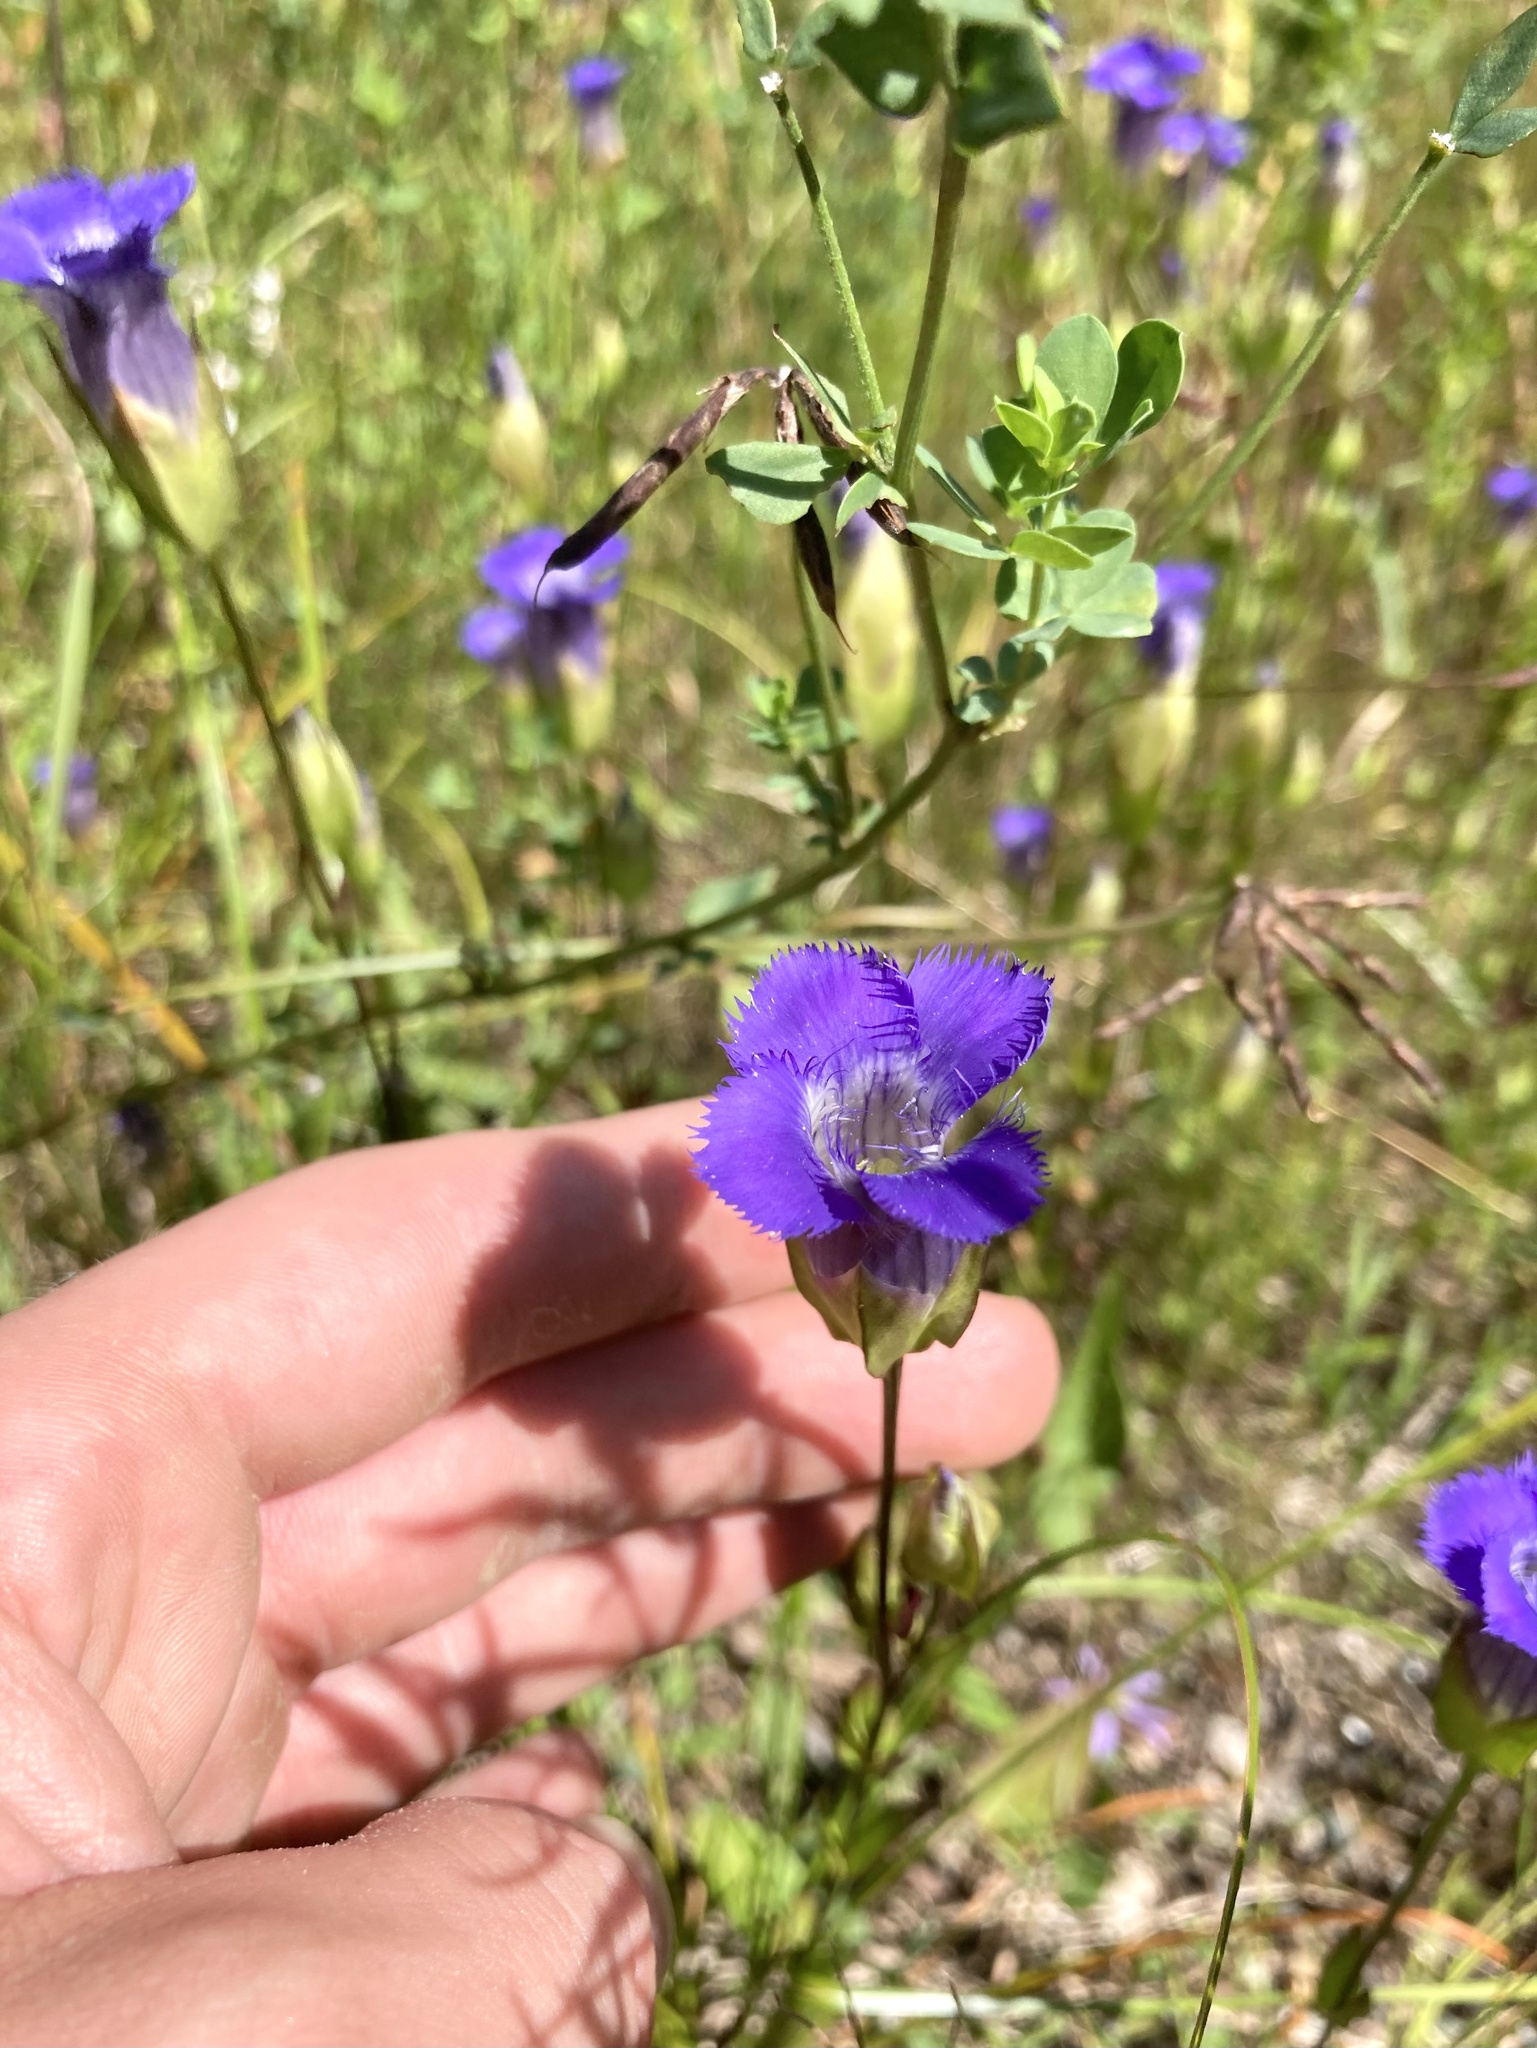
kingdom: Plantae
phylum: Tracheophyta
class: Magnoliopsida
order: Gentianales
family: Gentianaceae
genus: Gentianopsis
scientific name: Gentianopsis crinita
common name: Fringed-gentian
